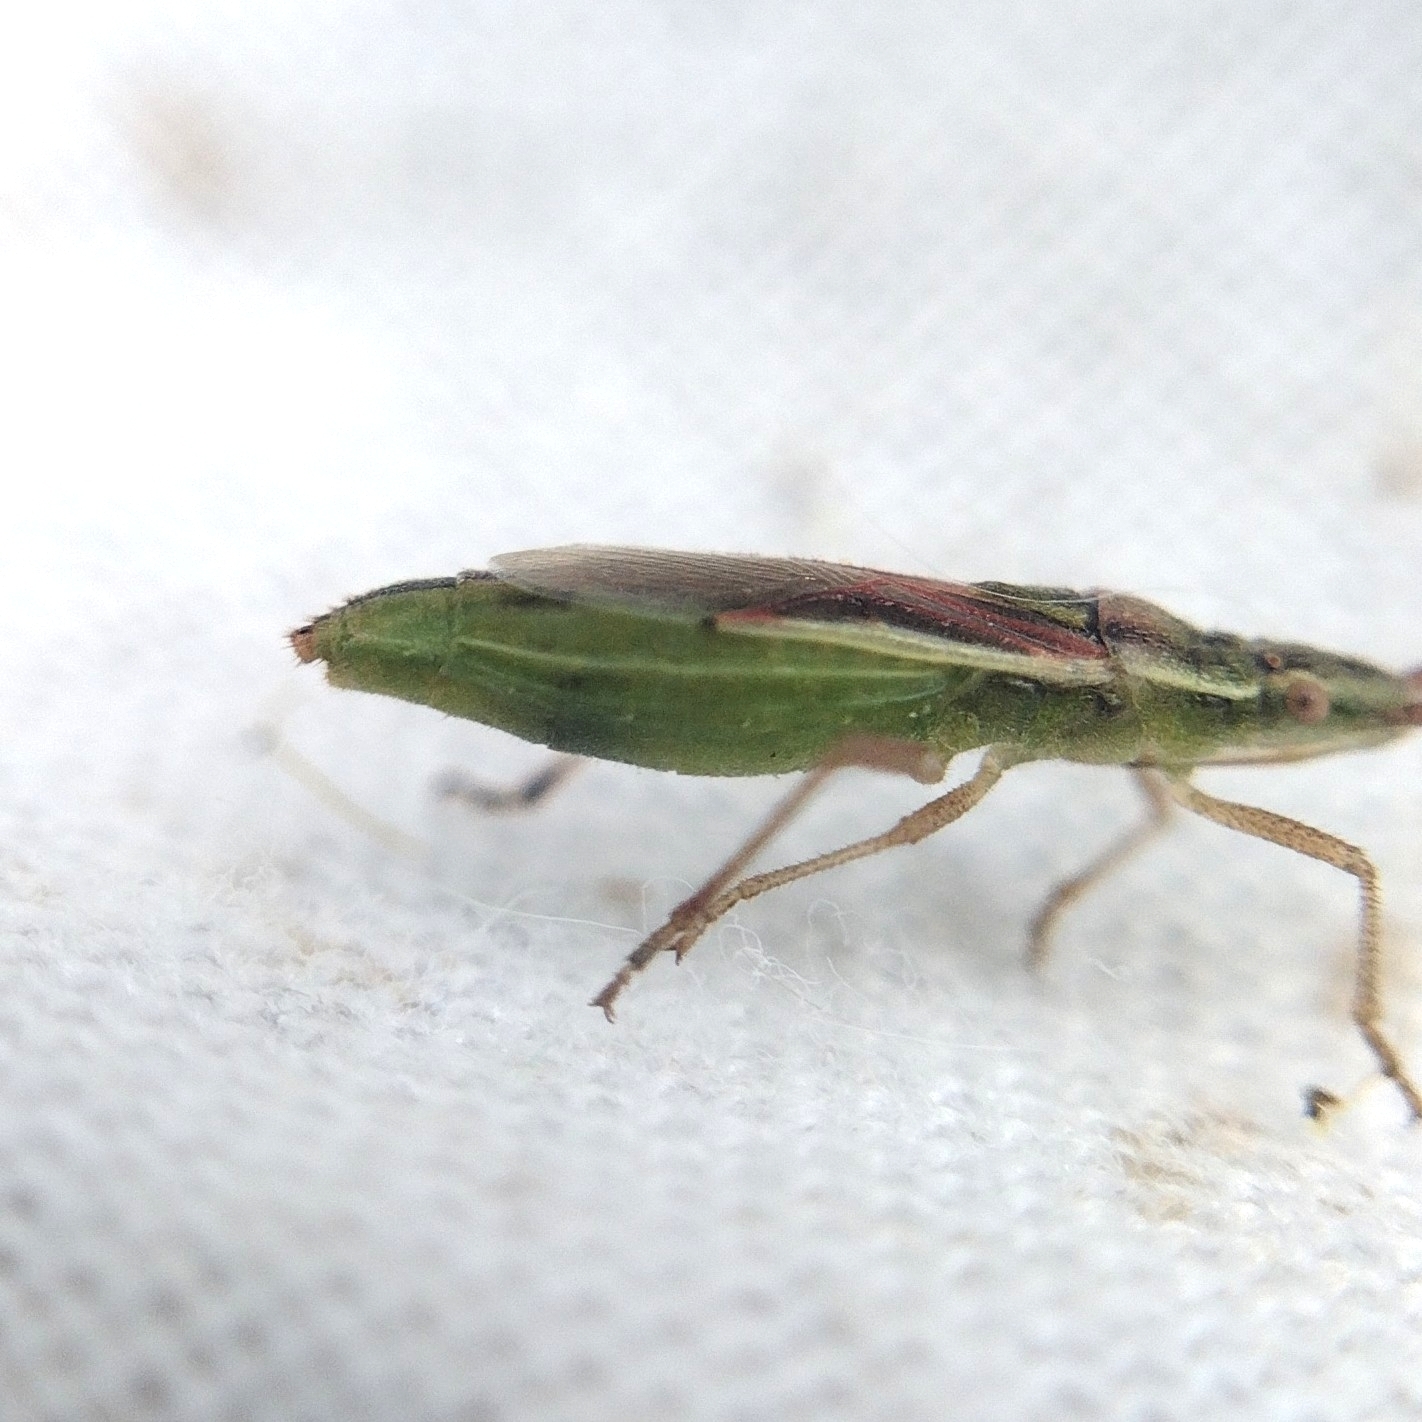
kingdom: Animalia
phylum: Arthropoda
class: Insecta
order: Hemiptera
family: Rhopalidae
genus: Myrmus
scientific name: Myrmus miriformis
